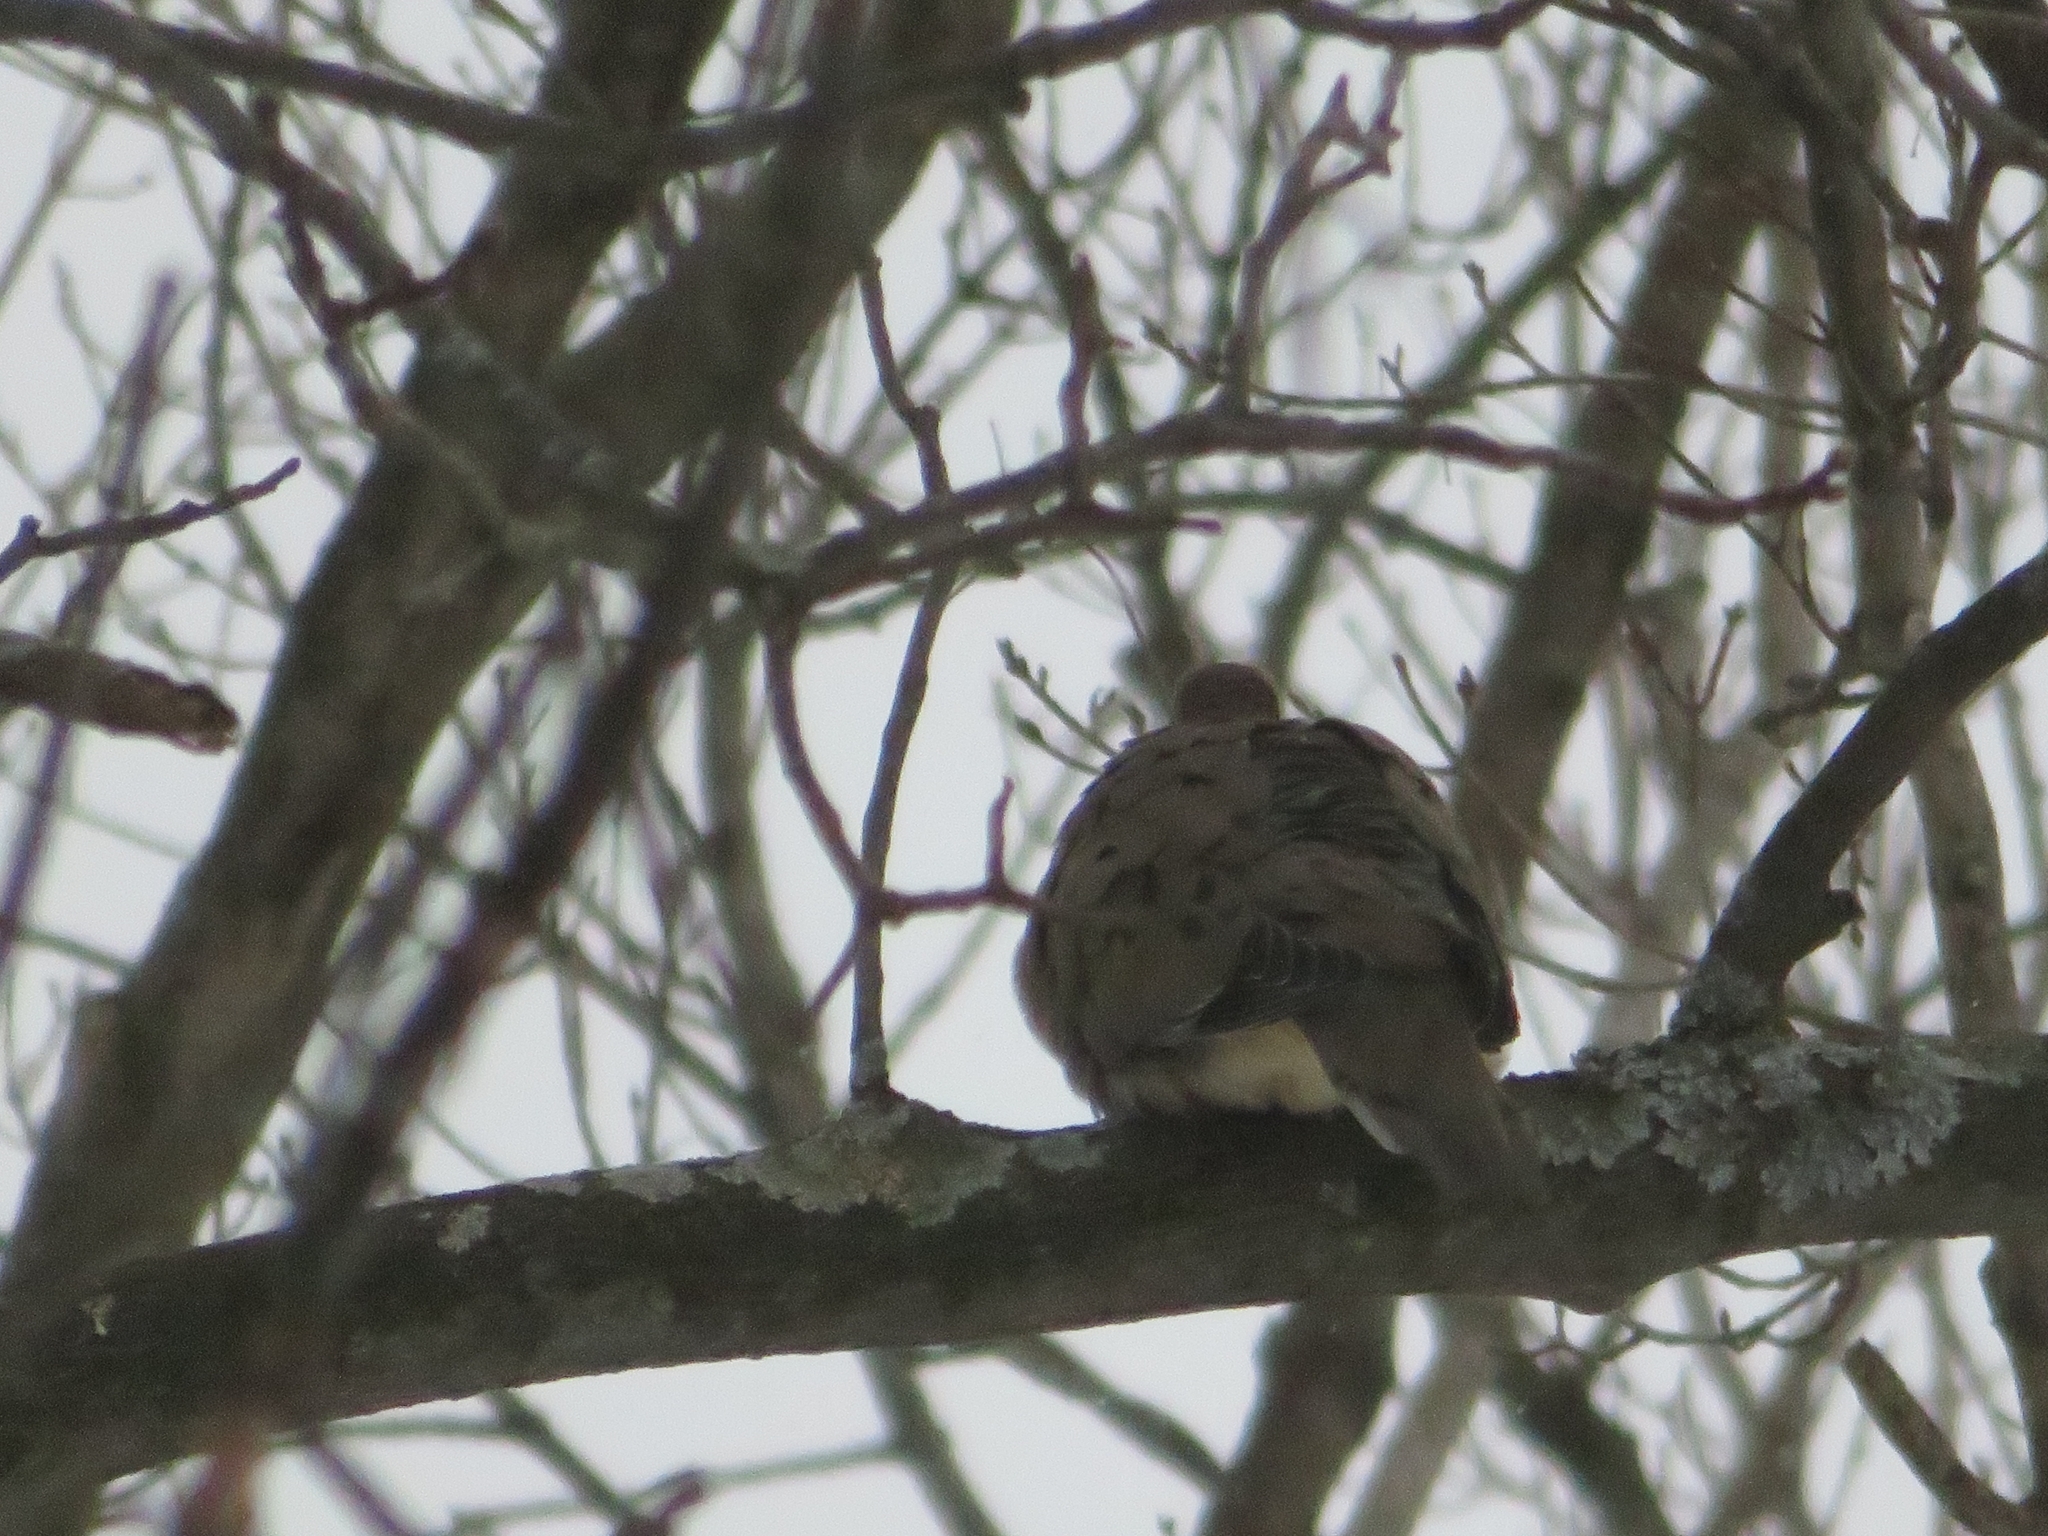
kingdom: Animalia
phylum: Chordata
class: Aves
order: Columbiformes
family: Columbidae
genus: Zenaida
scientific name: Zenaida macroura
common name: Mourning dove
